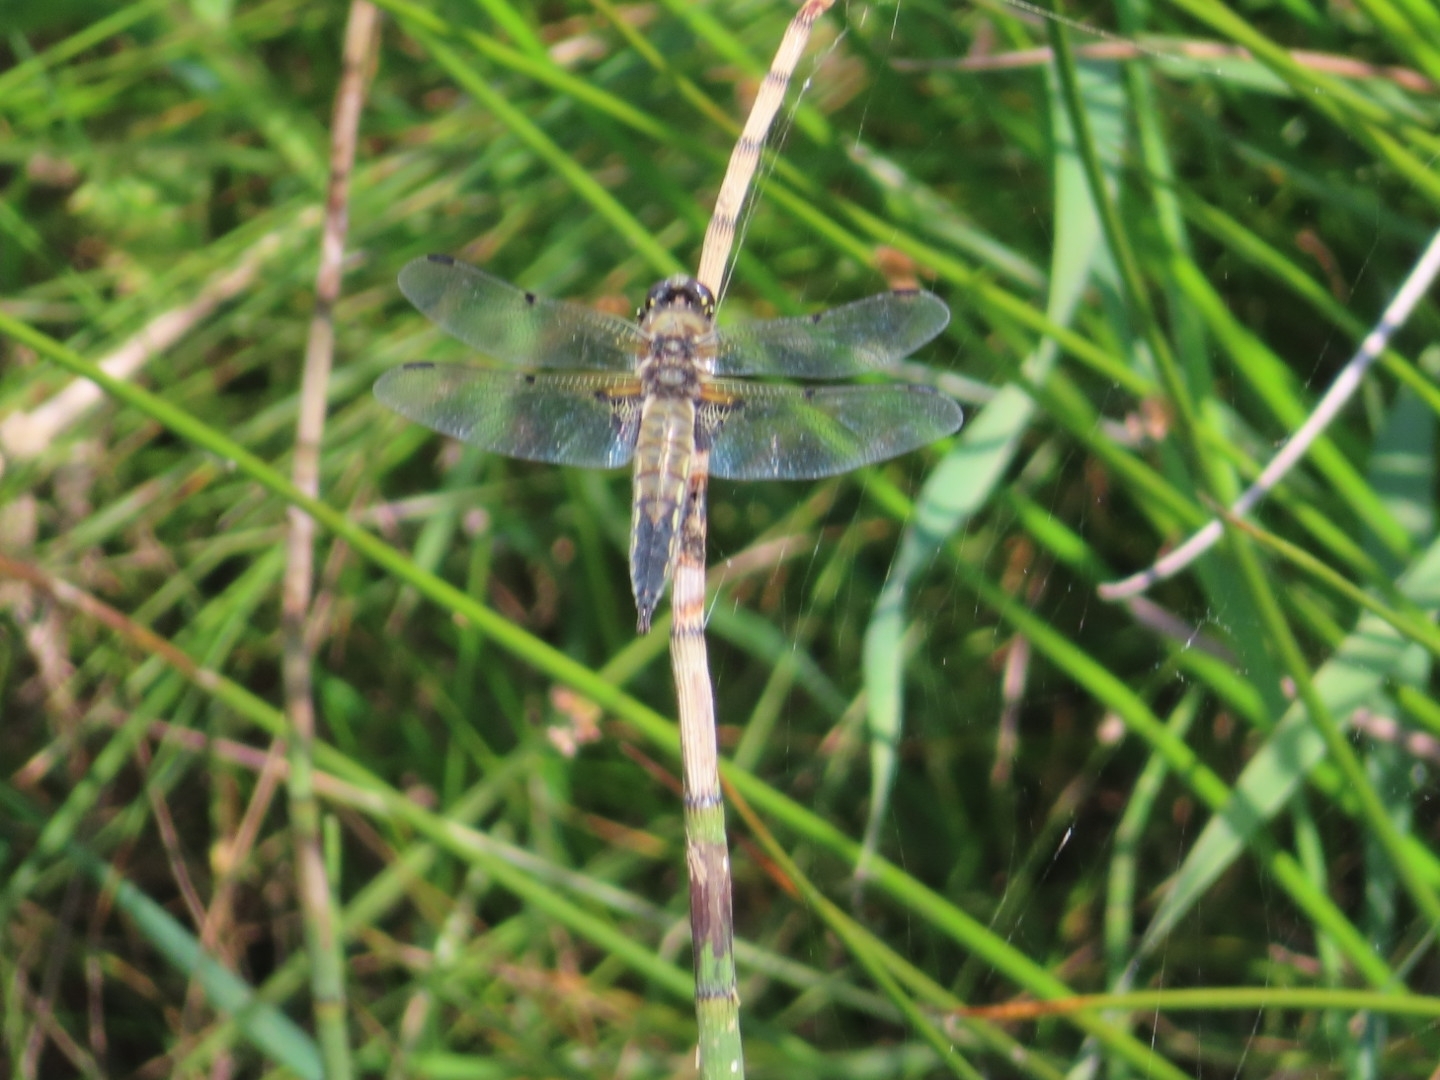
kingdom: Animalia
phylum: Arthropoda
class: Insecta
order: Odonata
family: Libellulidae
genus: Libellula
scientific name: Libellula quadrimaculata
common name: Four-spotted chaser
